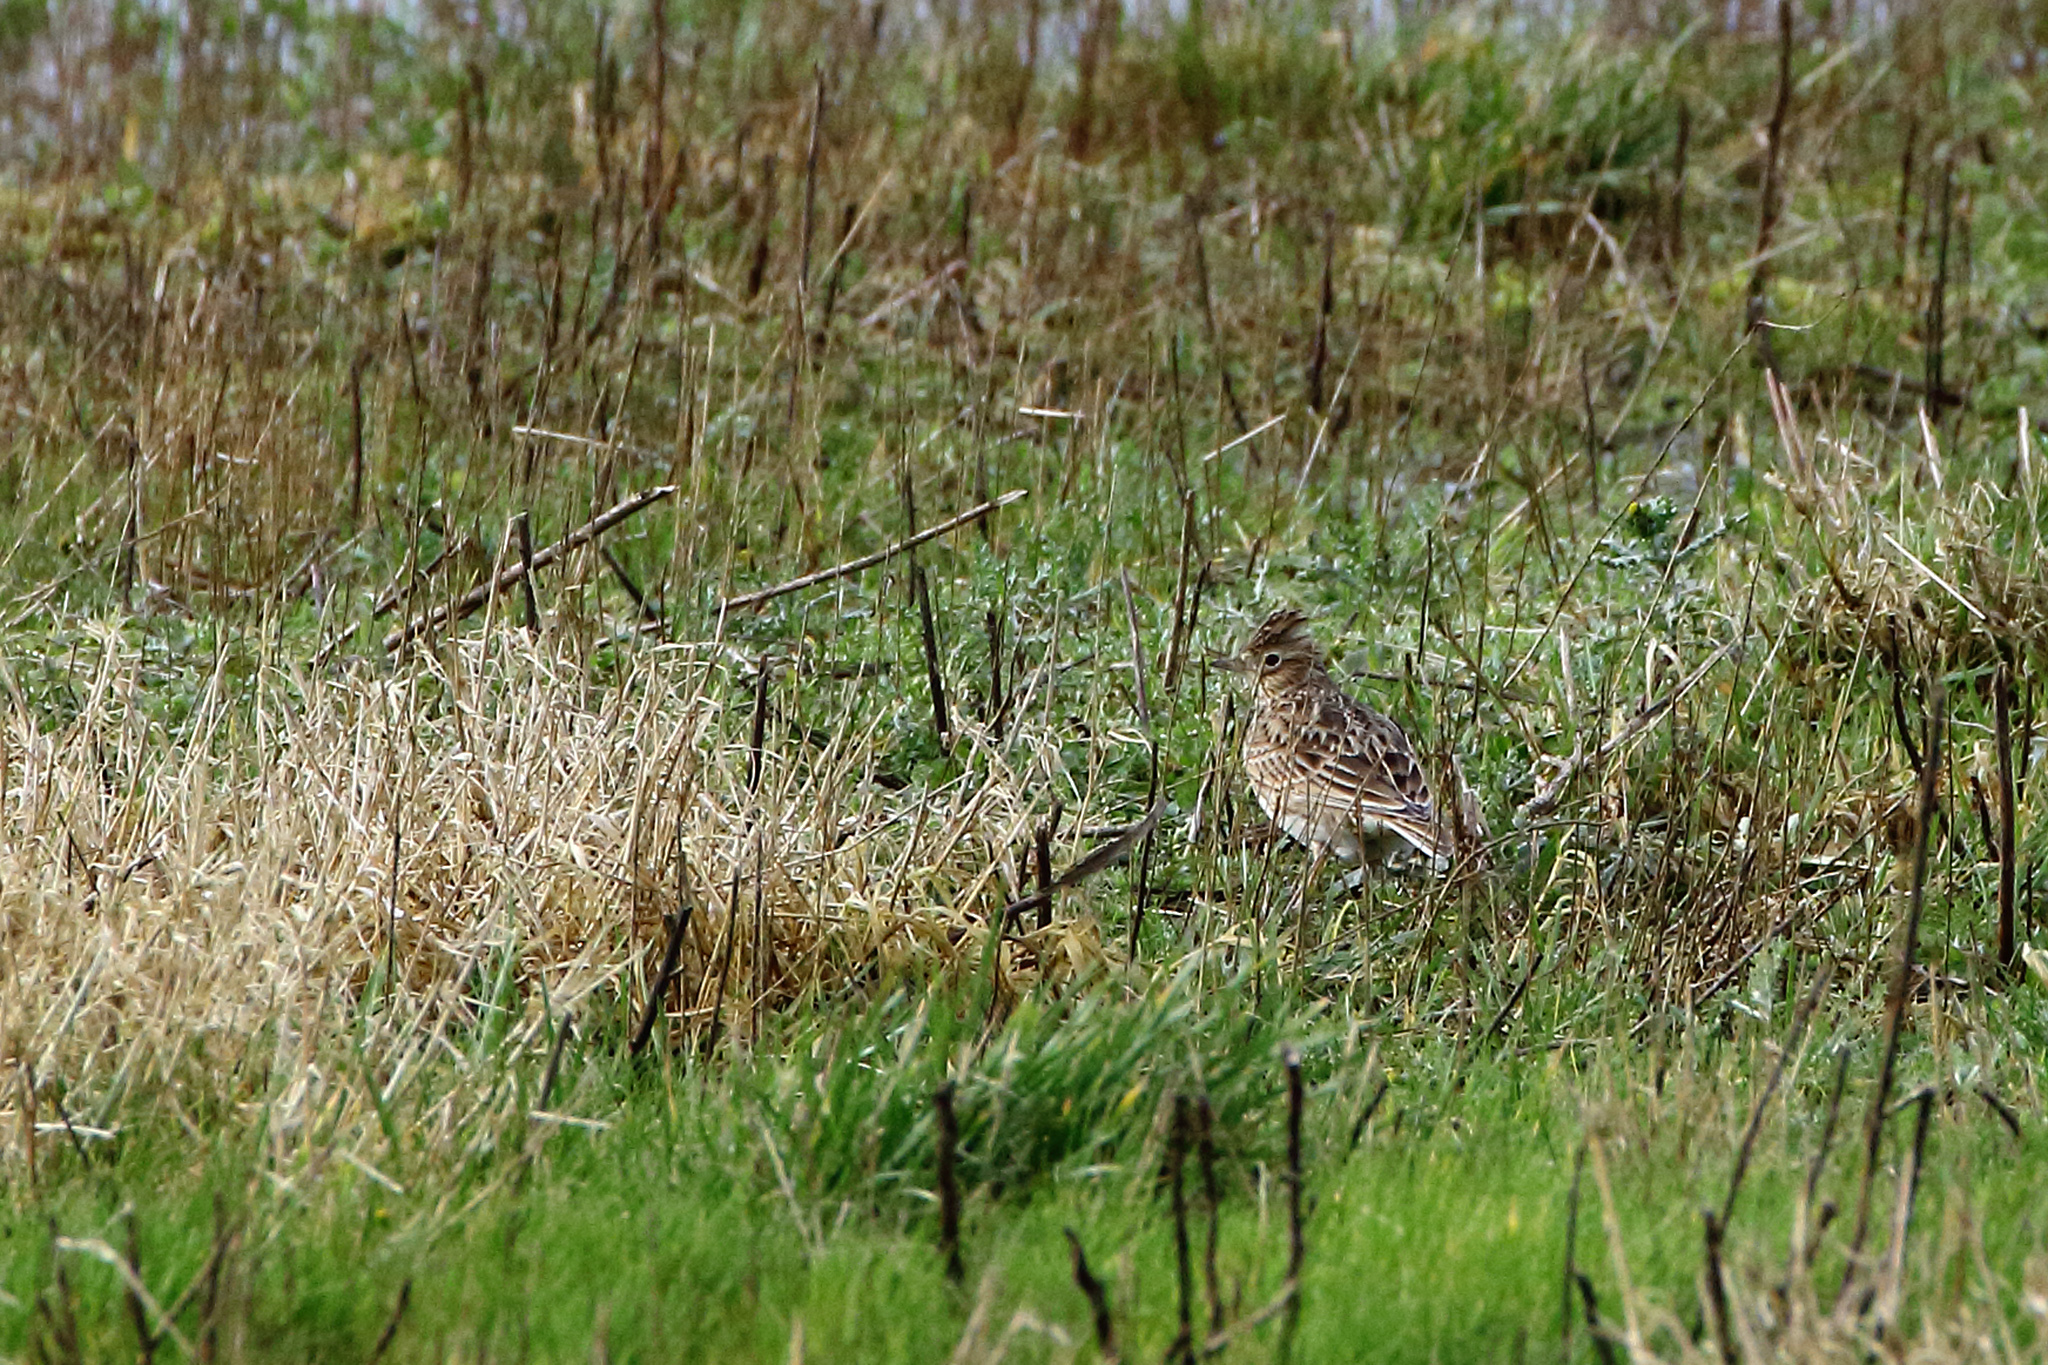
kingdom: Animalia
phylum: Chordata
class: Aves
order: Passeriformes
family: Alaudidae
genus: Alauda
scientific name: Alauda arvensis
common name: Eurasian skylark
